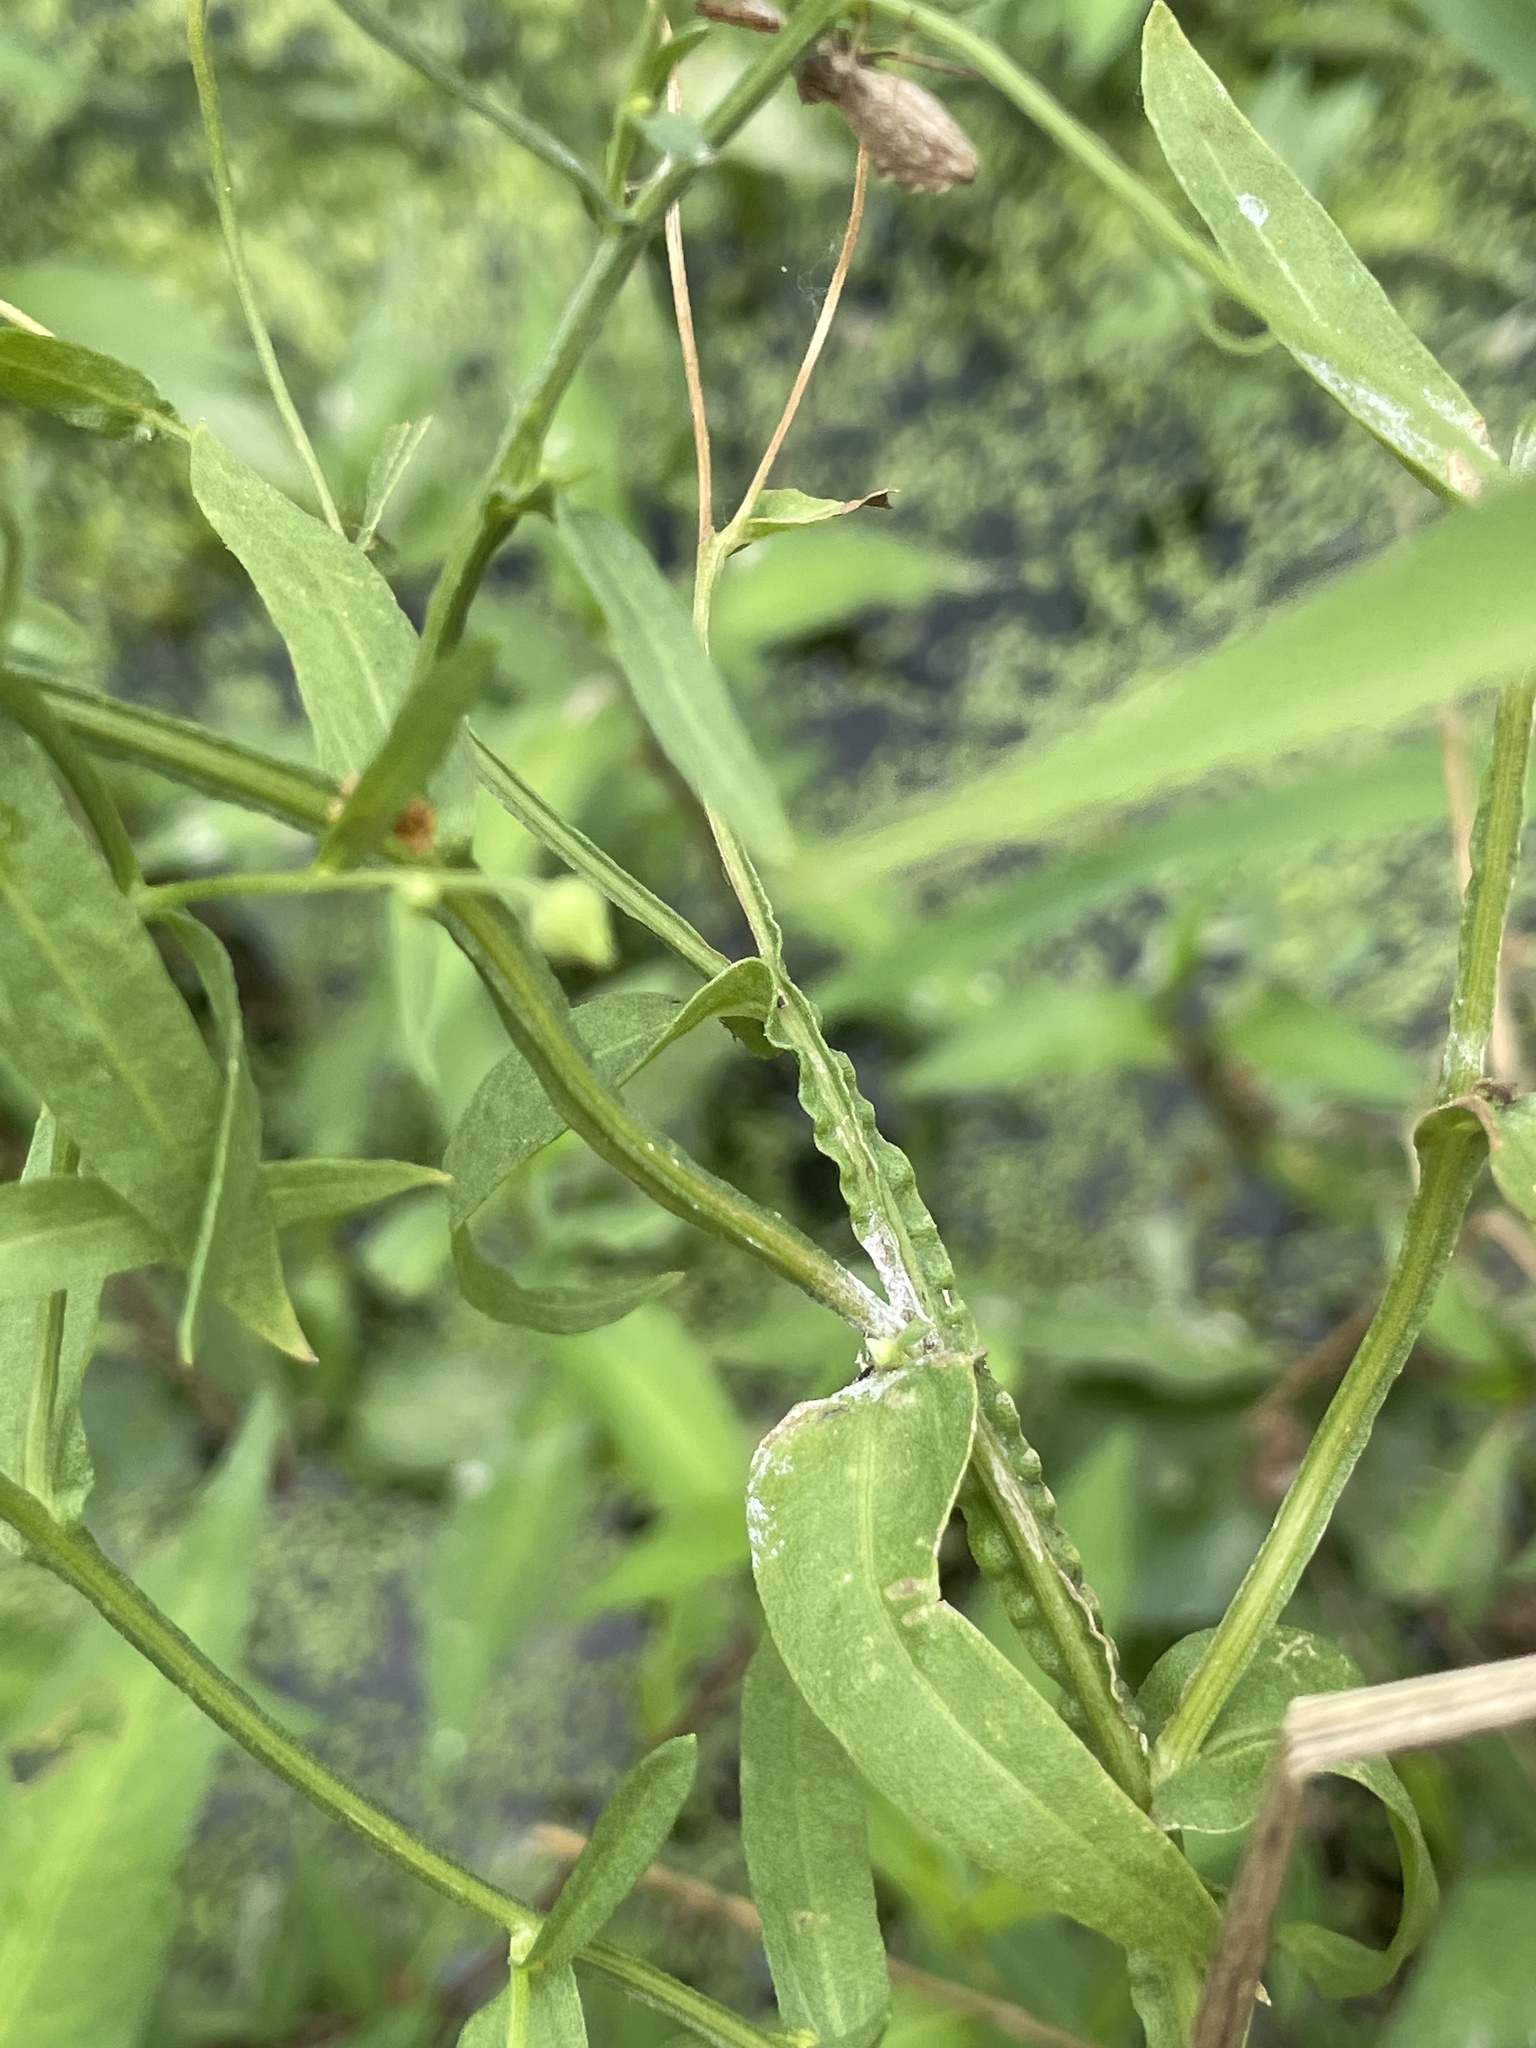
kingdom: Plantae
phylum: Tracheophyta
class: Magnoliopsida
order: Asterales
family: Asteraceae
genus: Helenium
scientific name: Helenium elegans
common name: Pretty sneezeweed
